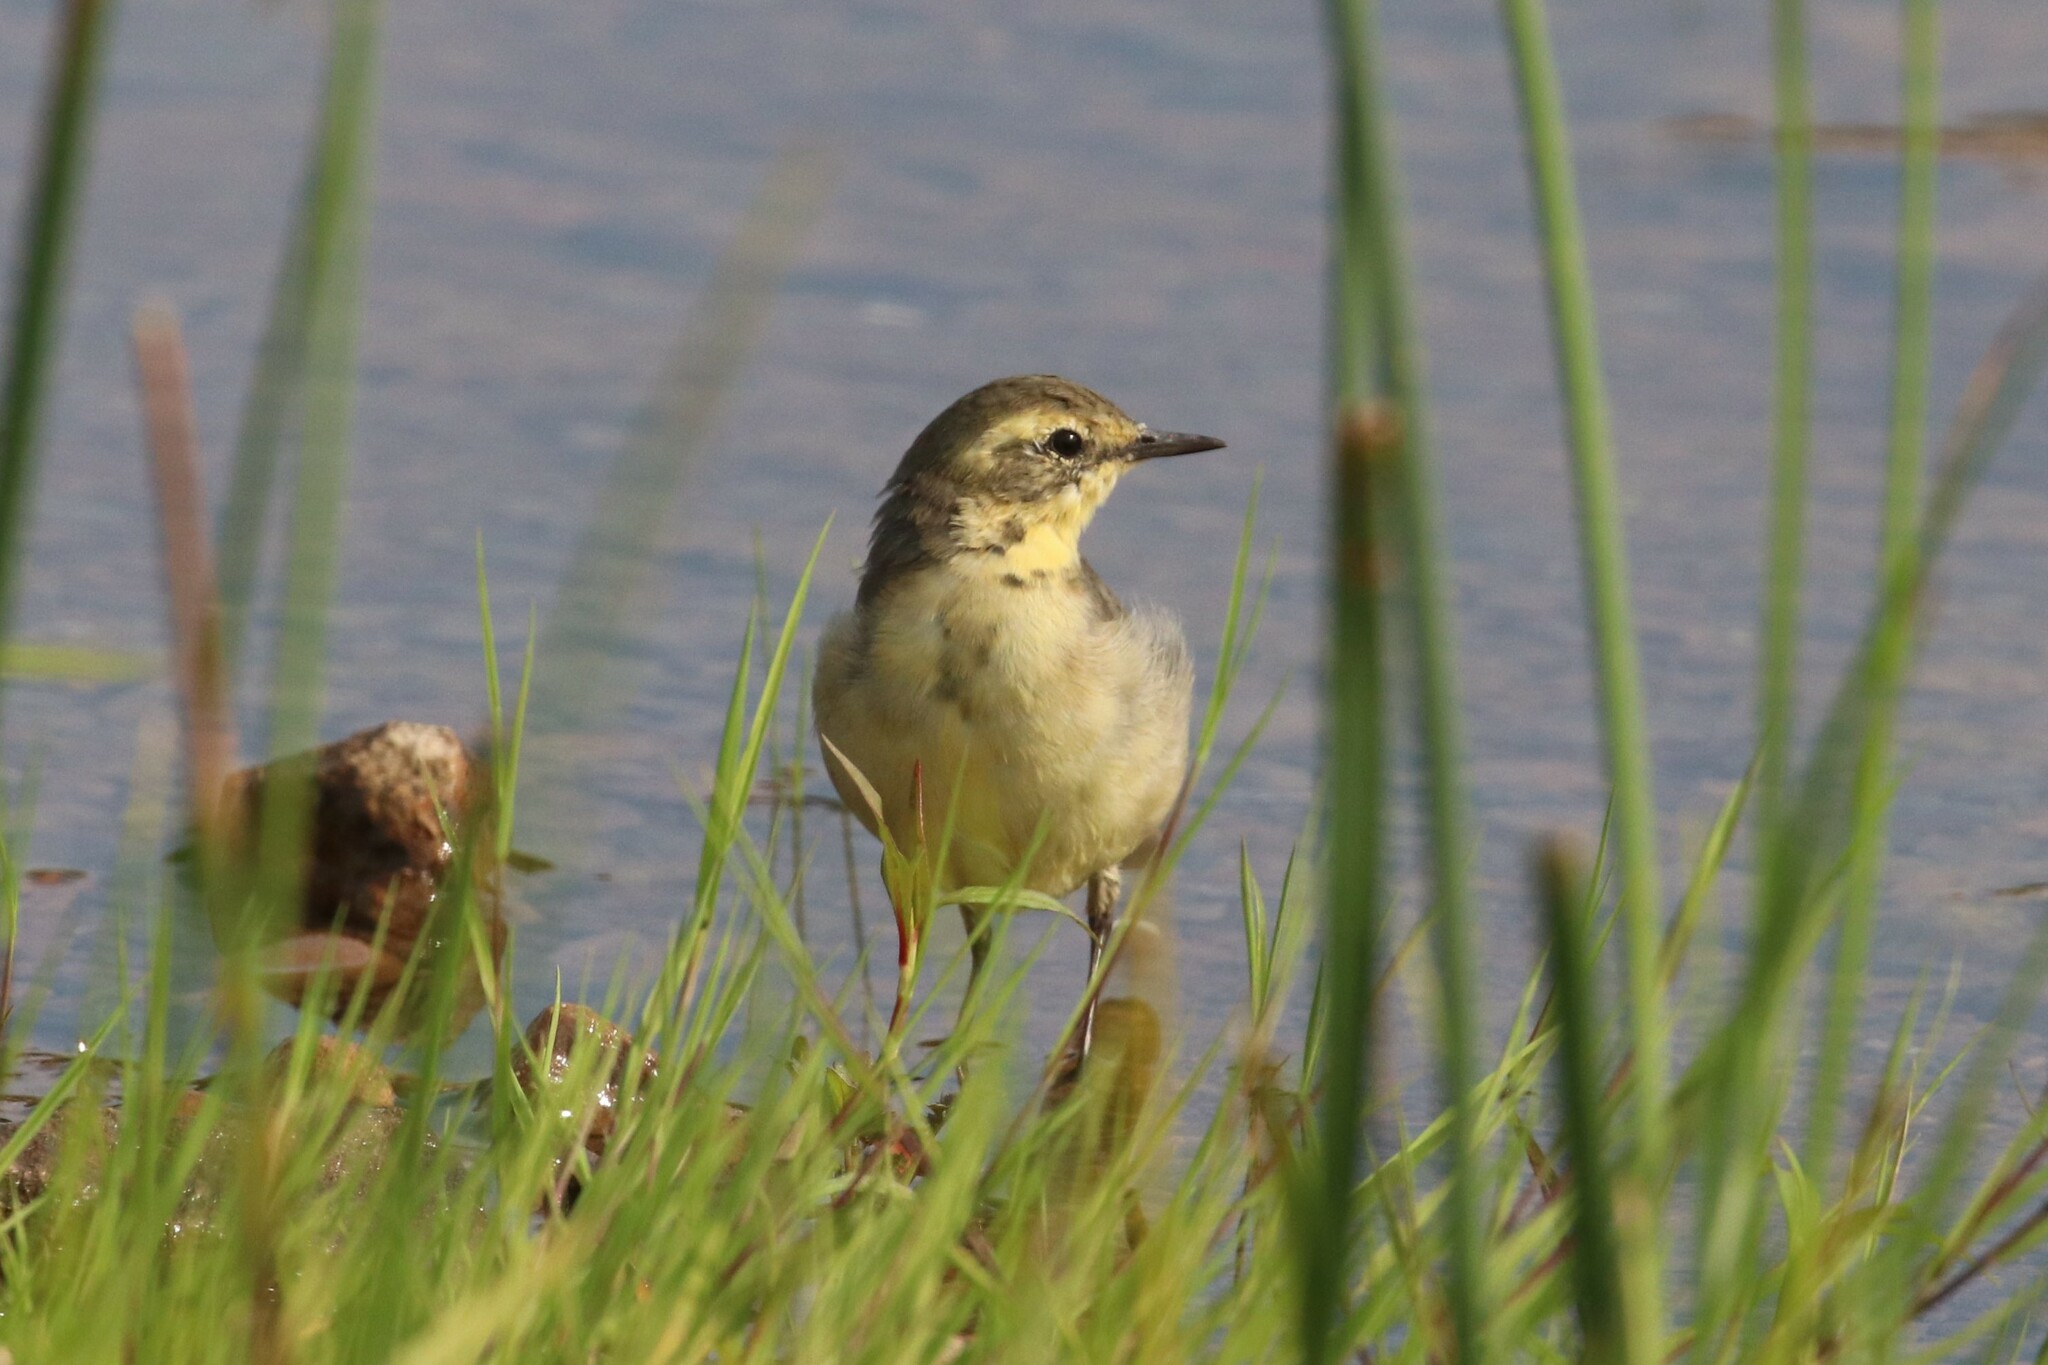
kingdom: Animalia
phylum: Chordata
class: Aves
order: Passeriformes
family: Motacillidae
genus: Motacilla
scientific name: Motacilla citreola
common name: Citrine wagtail
